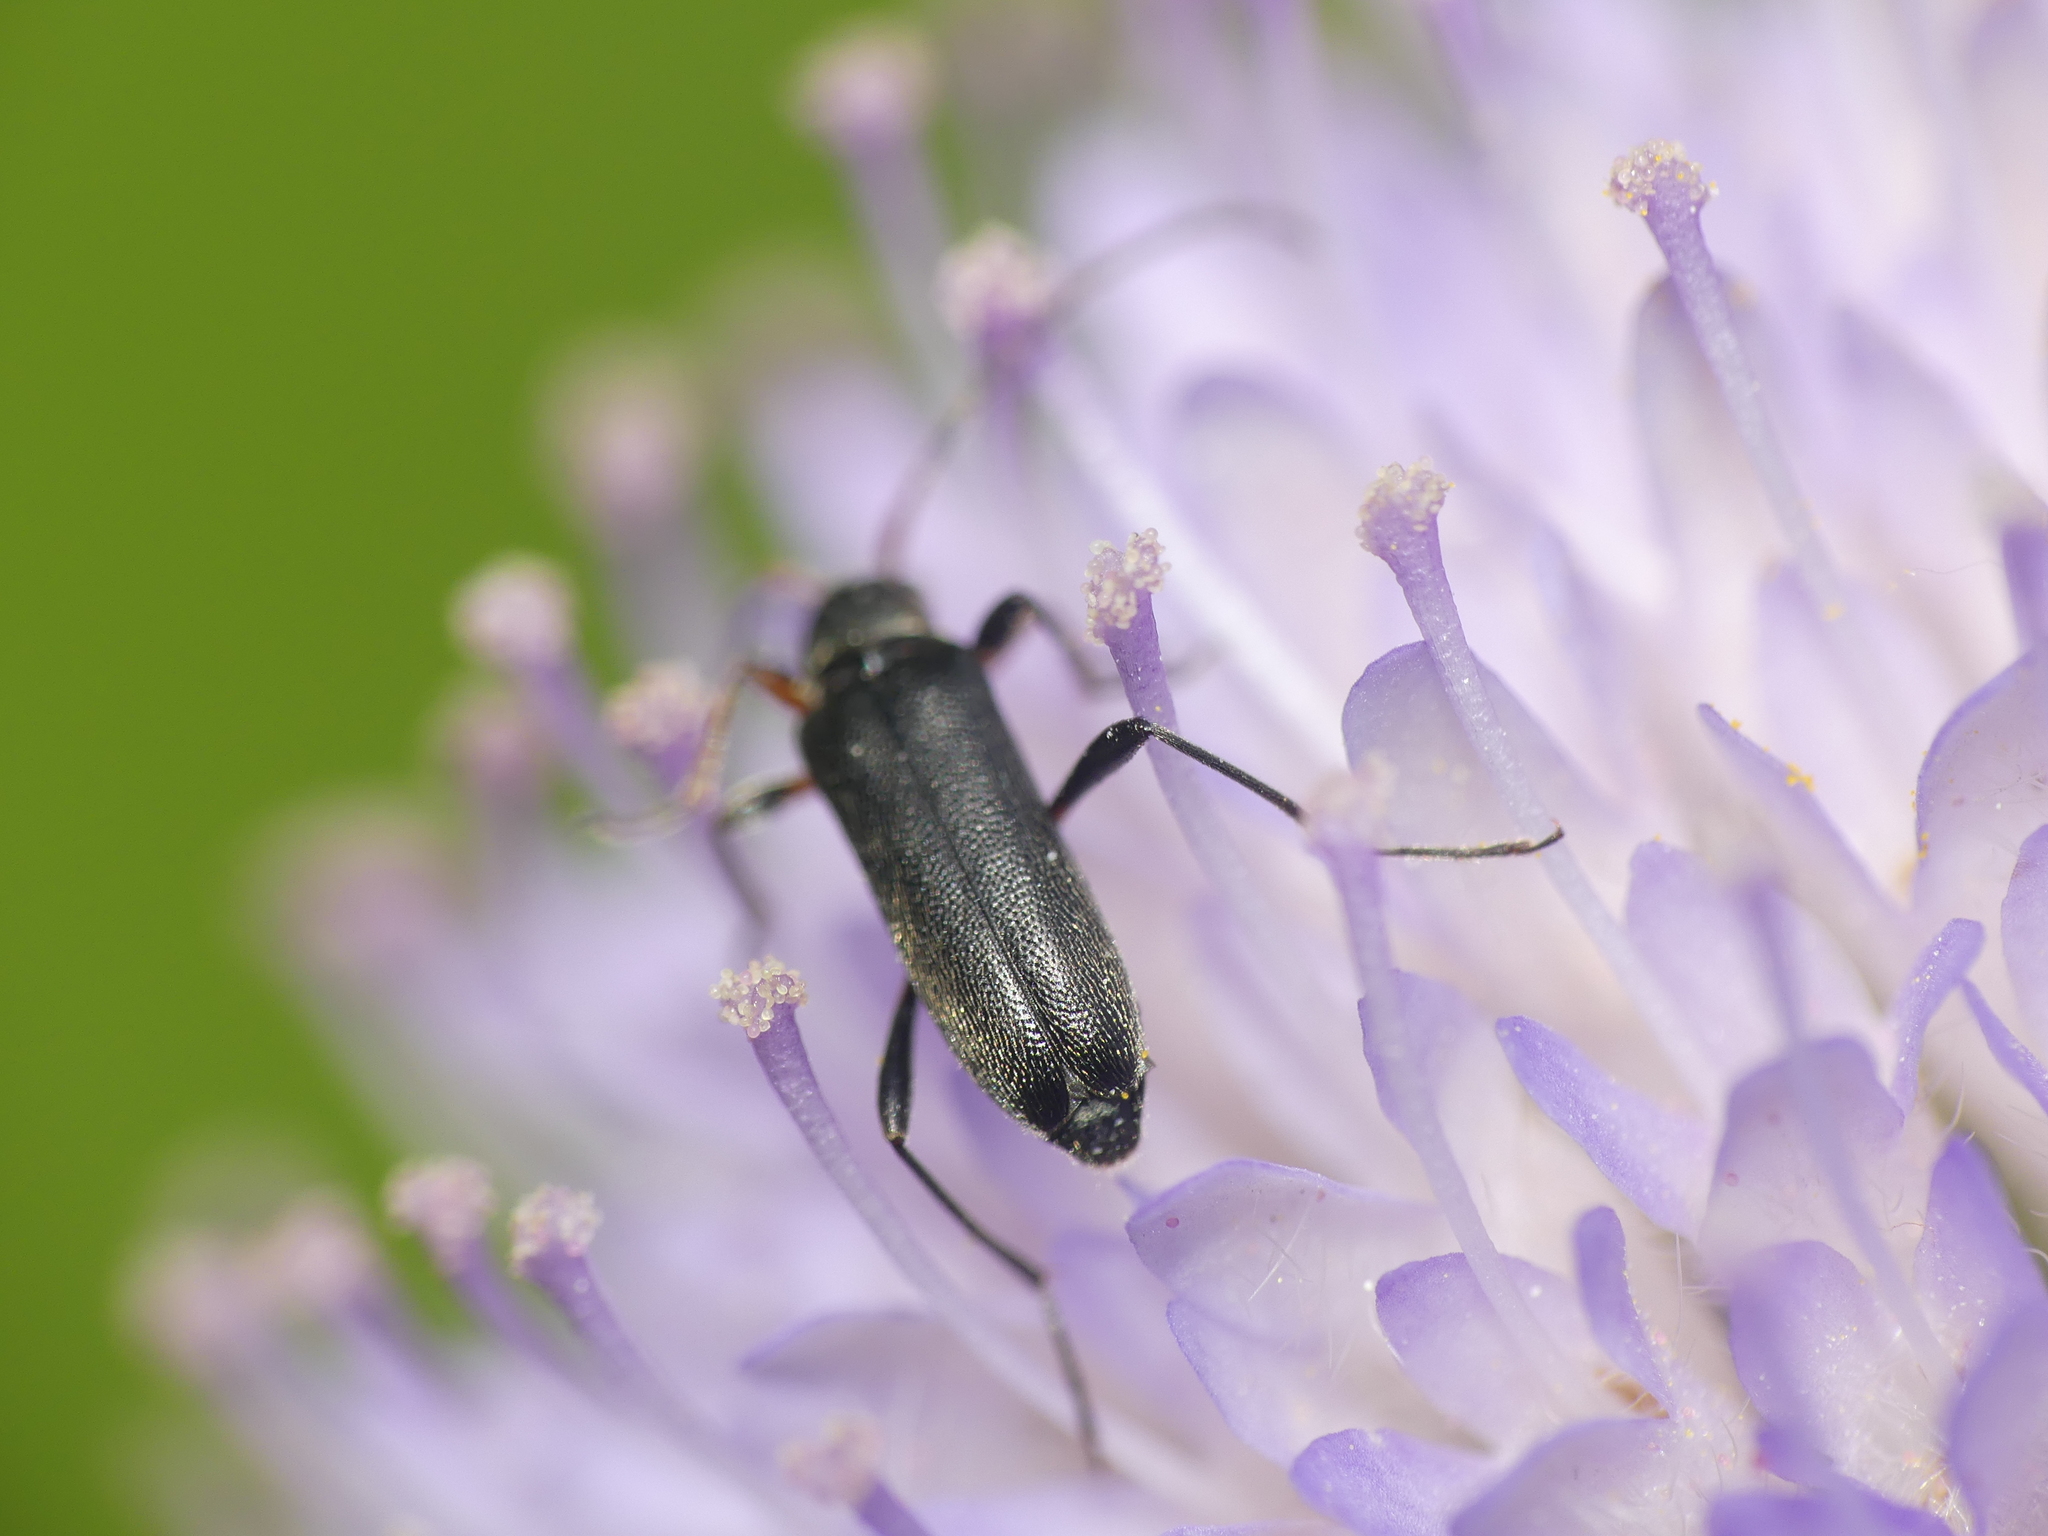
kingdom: Animalia
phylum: Arthropoda
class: Insecta
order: Coleoptera
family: Cerambycidae
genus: Grammoptera
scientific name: Grammoptera ruficornis
